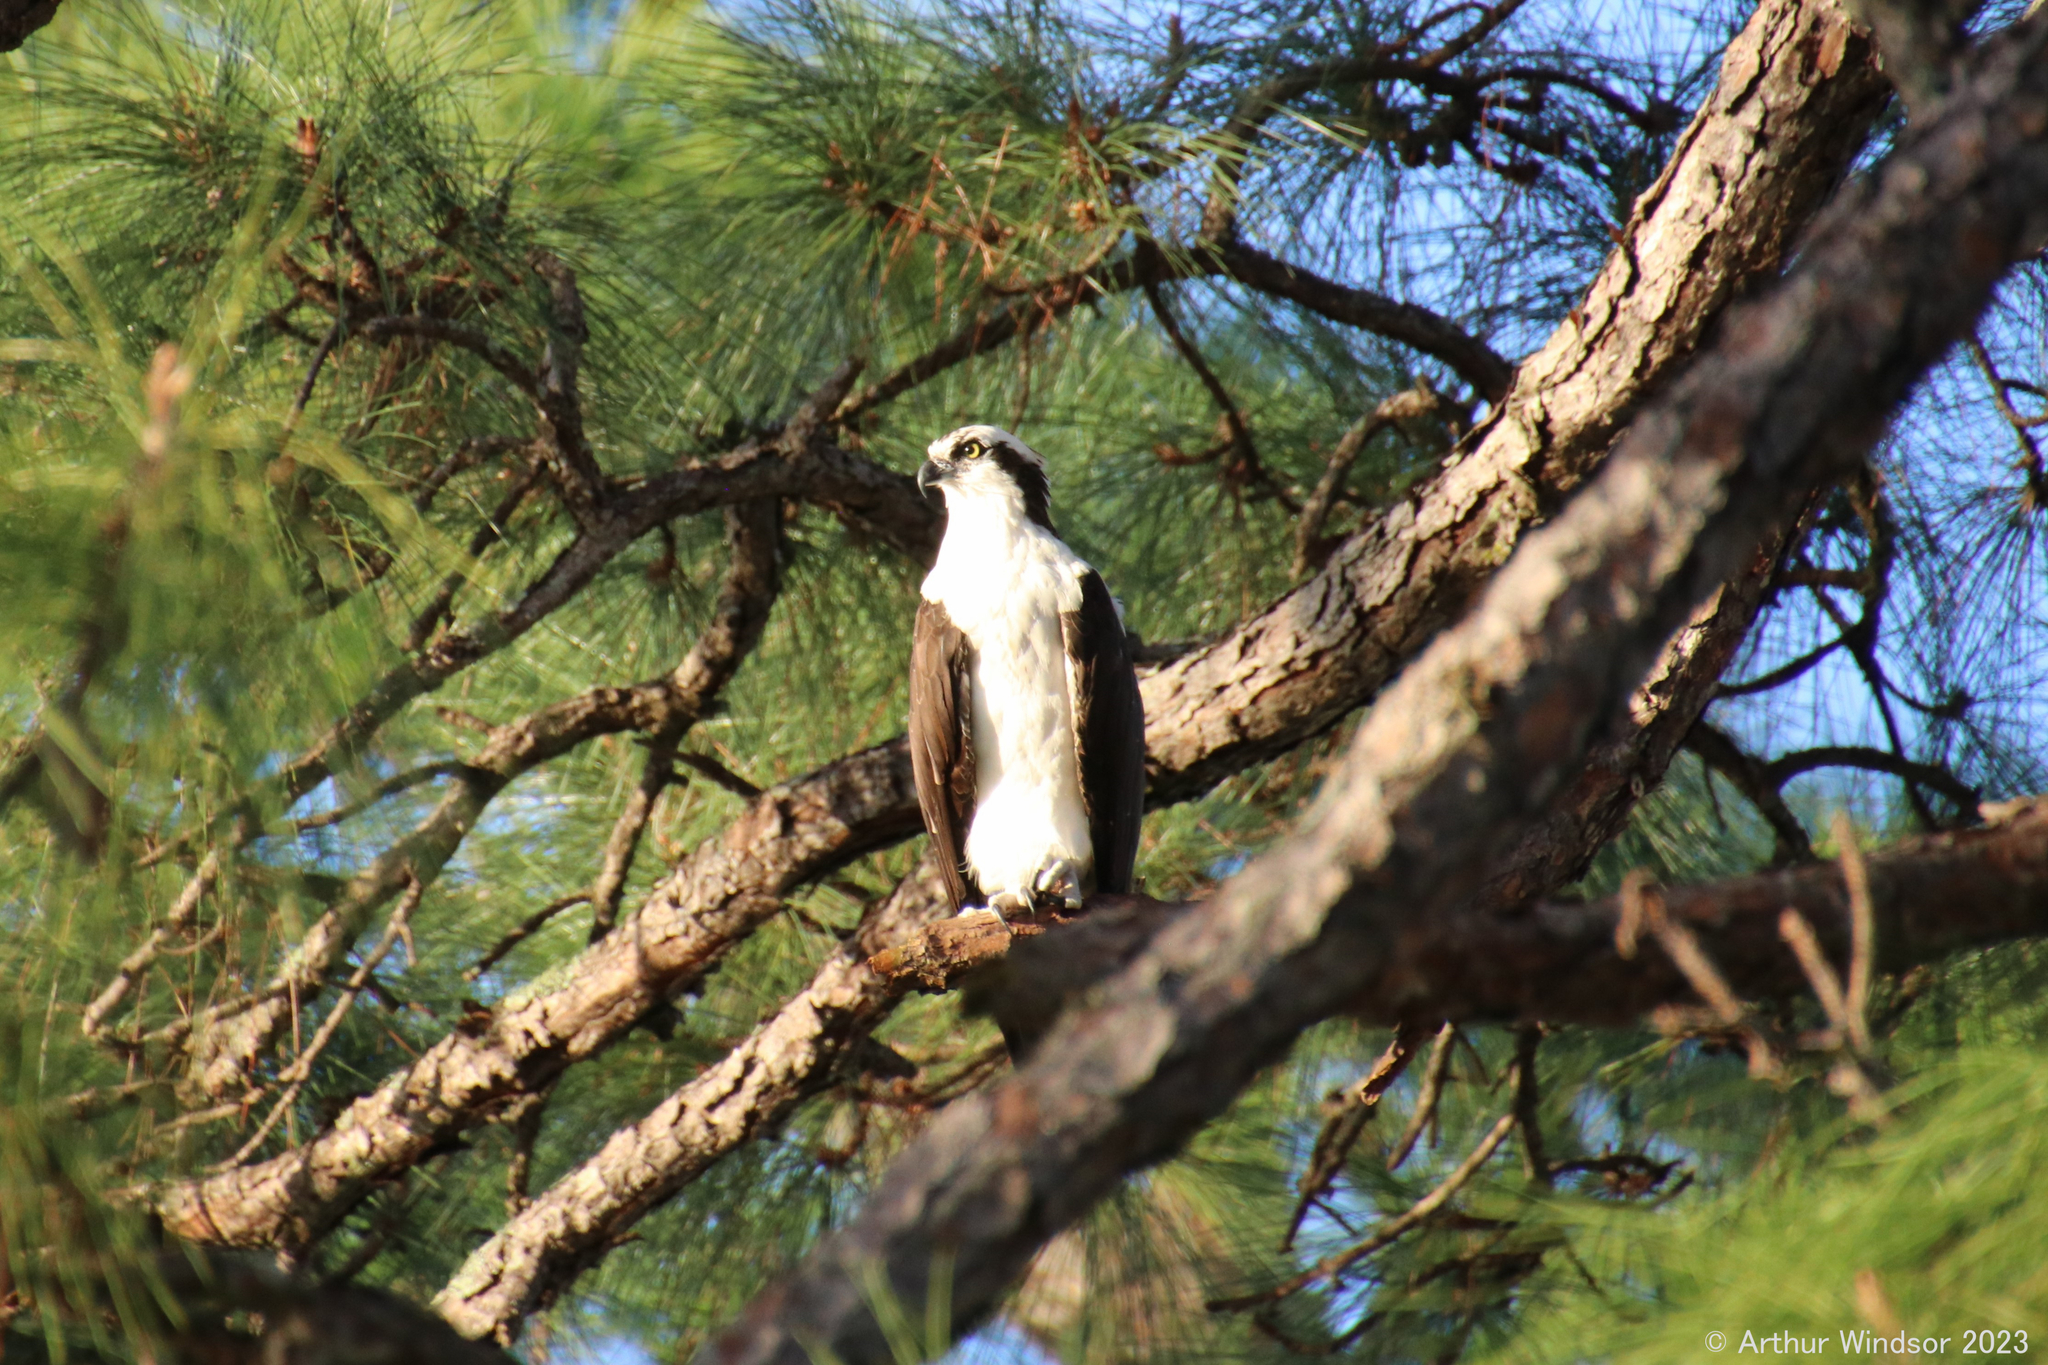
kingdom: Animalia
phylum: Chordata
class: Aves
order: Accipitriformes
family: Pandionidae
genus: Pandion
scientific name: Pandion haliaetus
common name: Osprey
